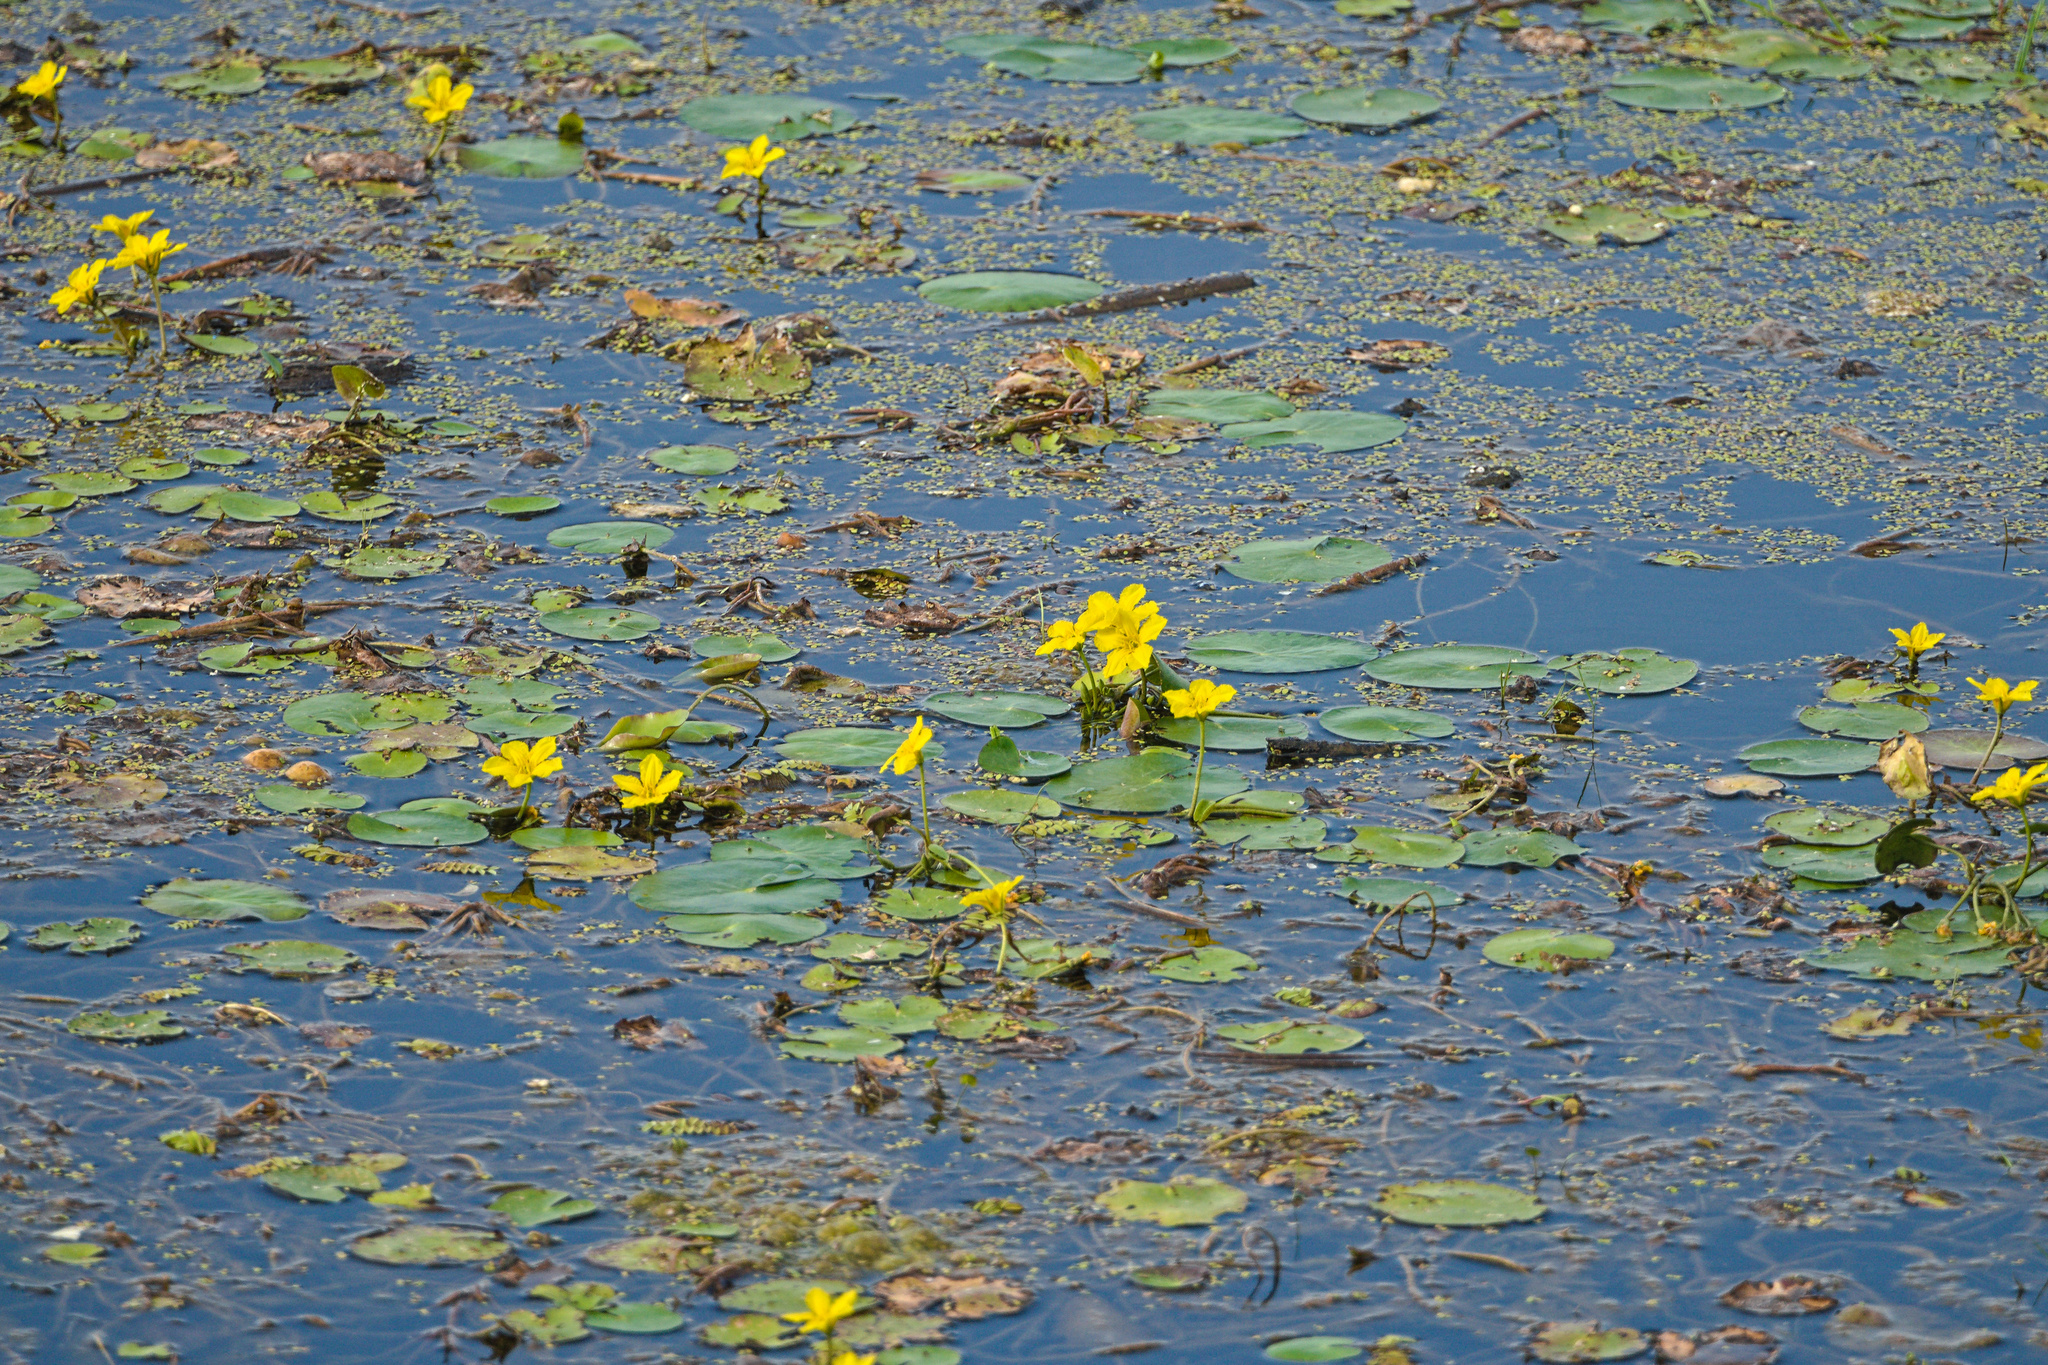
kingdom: Plantae
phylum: Tracheophyta
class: Magnoliopsida
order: Asterales
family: Menyanthaceae
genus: Nymphoides
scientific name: Nymphoides peltata
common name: Fringed water-lily
